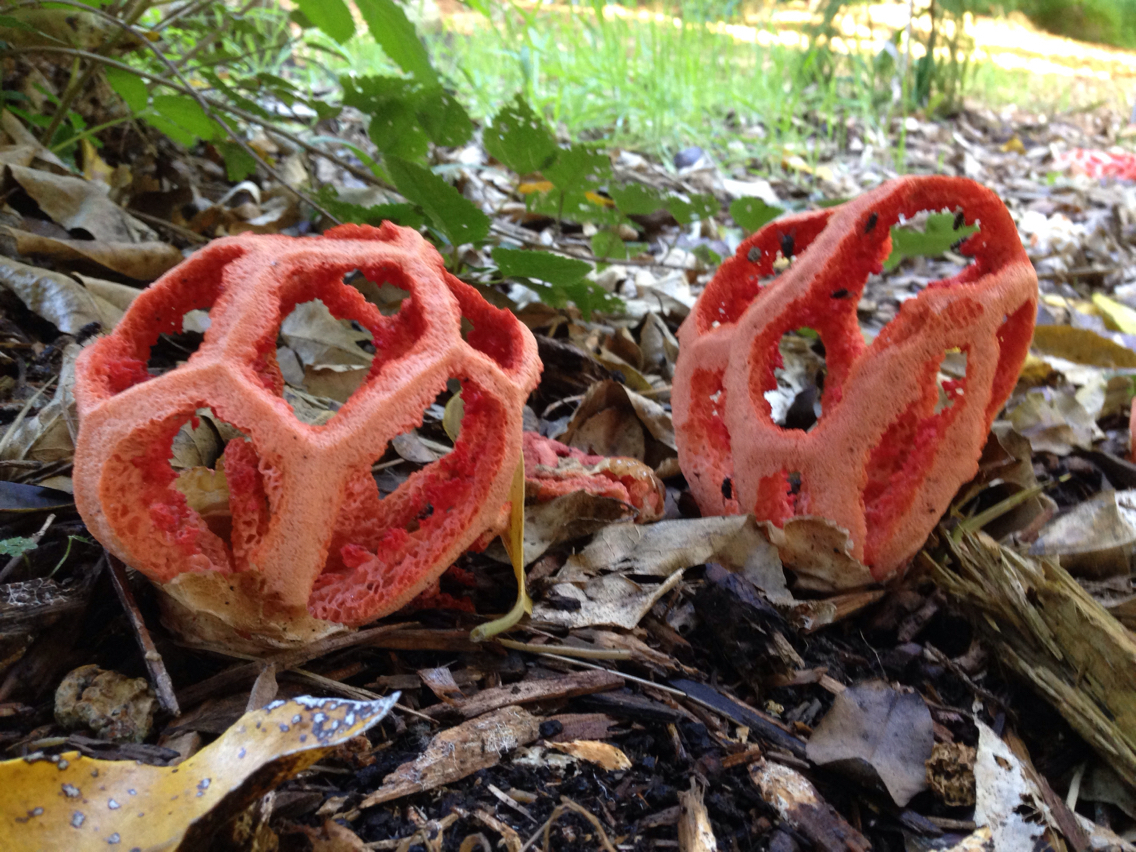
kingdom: Fungi
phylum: Basidiomycota
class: Agaricomycetes
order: Phallales
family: Phallaceae
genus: Clathrus
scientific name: Clathrus ruber
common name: Red cage
